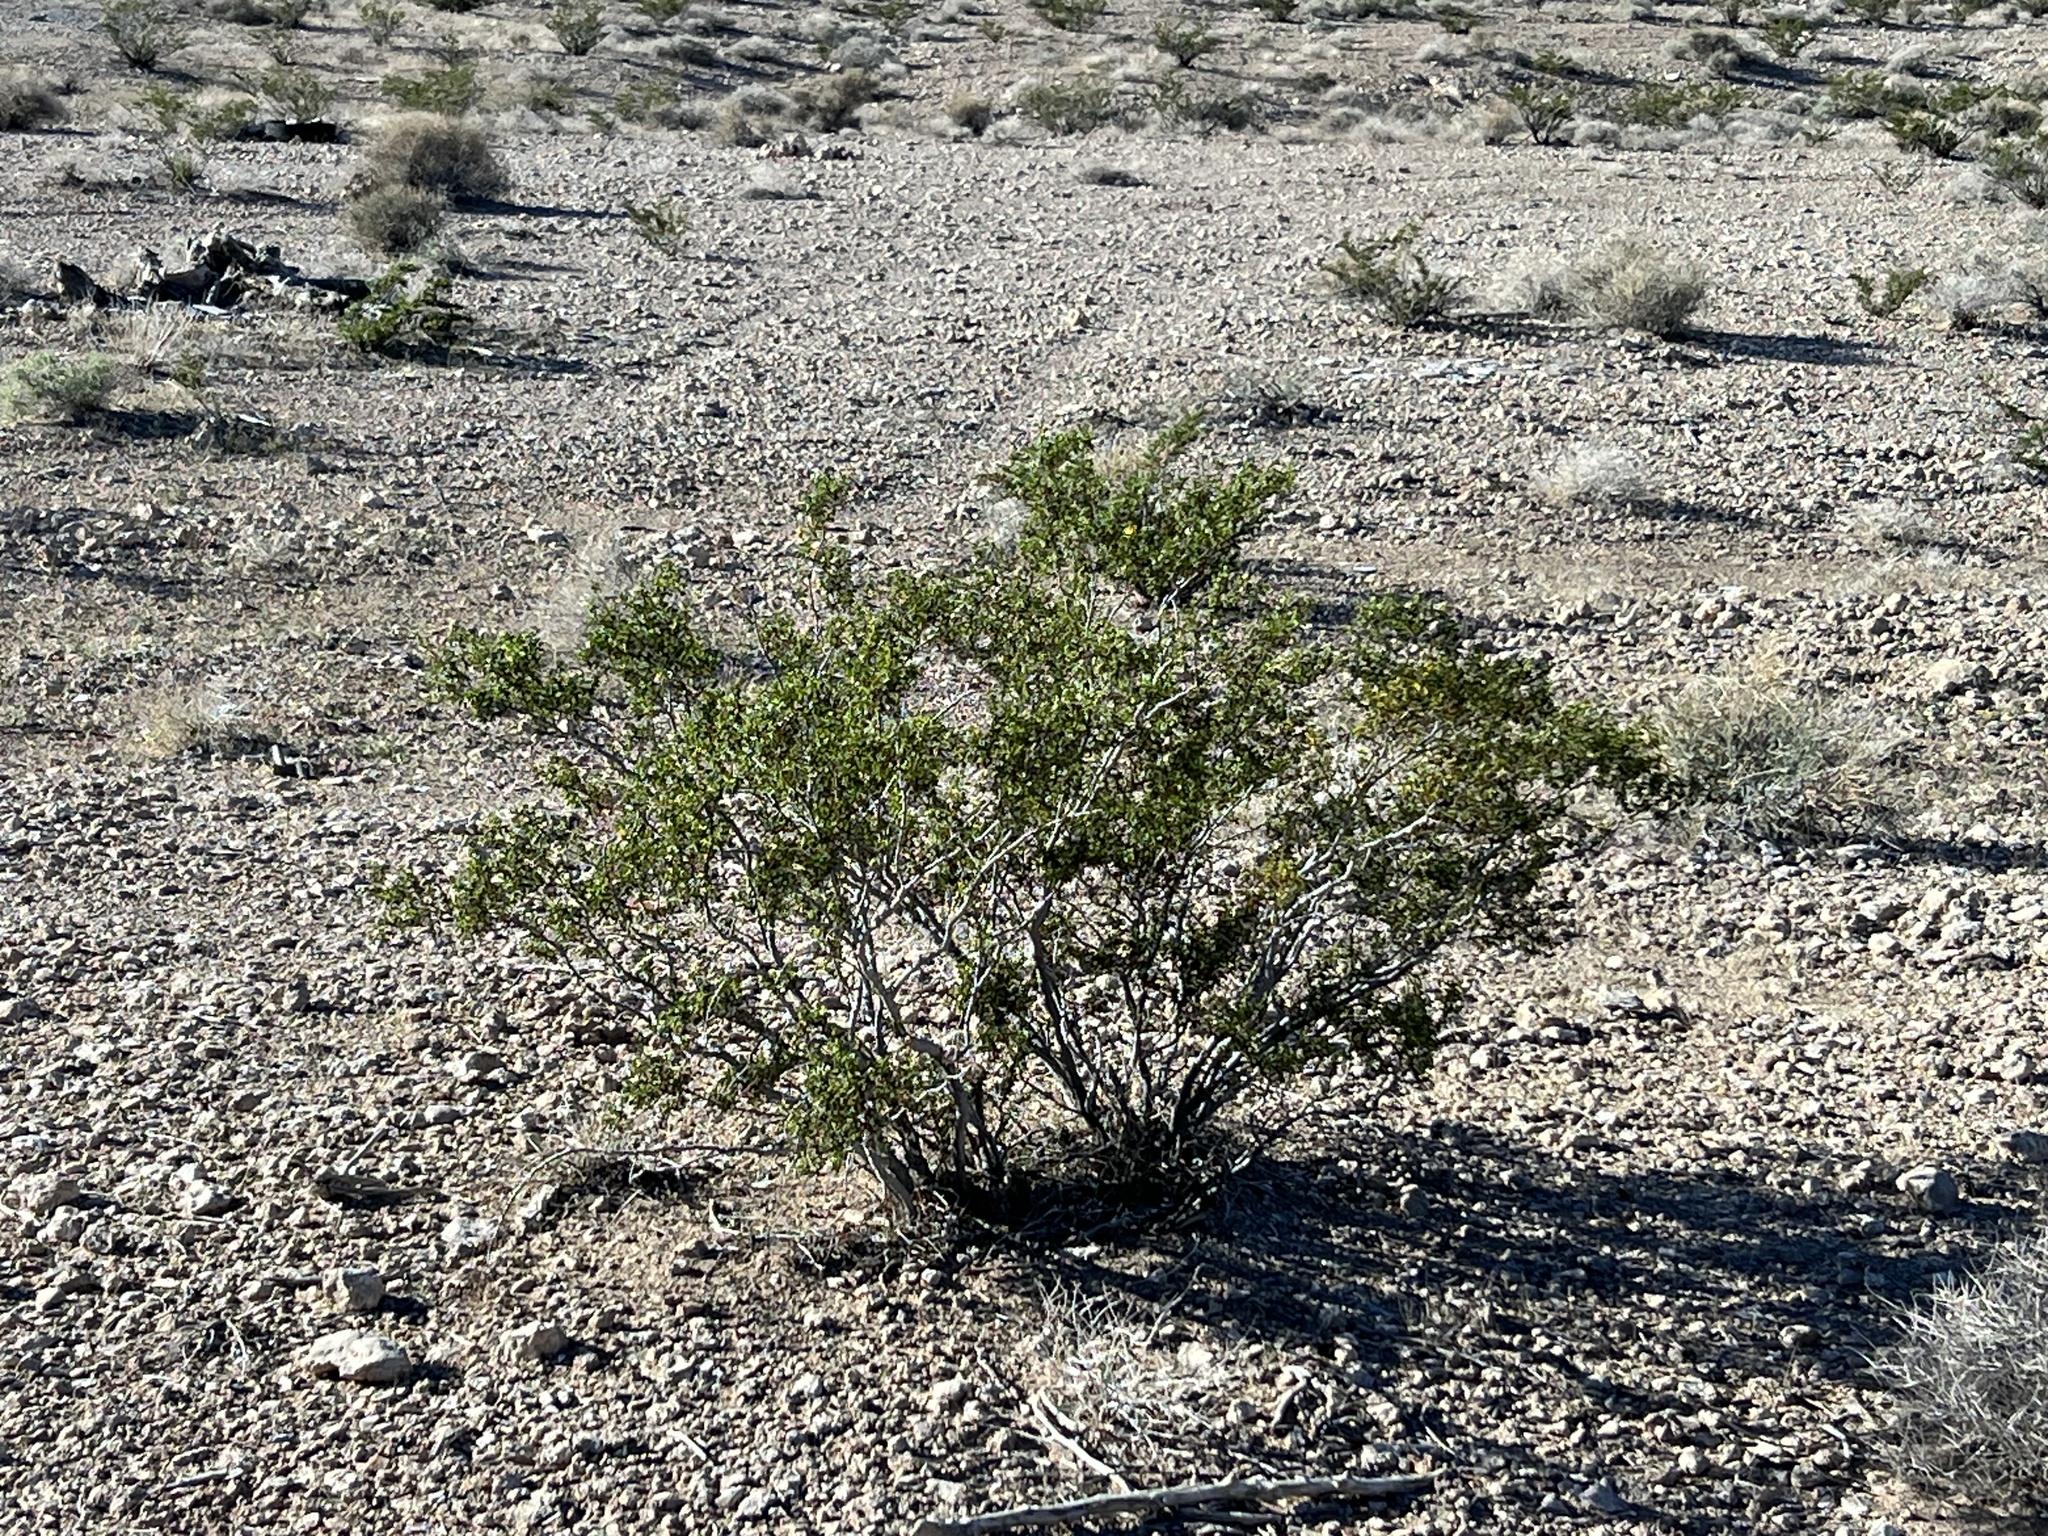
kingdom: Plantae
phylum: Tracheophyta
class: Magnoliopsida
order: Zygophyllales
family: Zygophyllaceae
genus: Larrea
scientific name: Larrea tridentata
